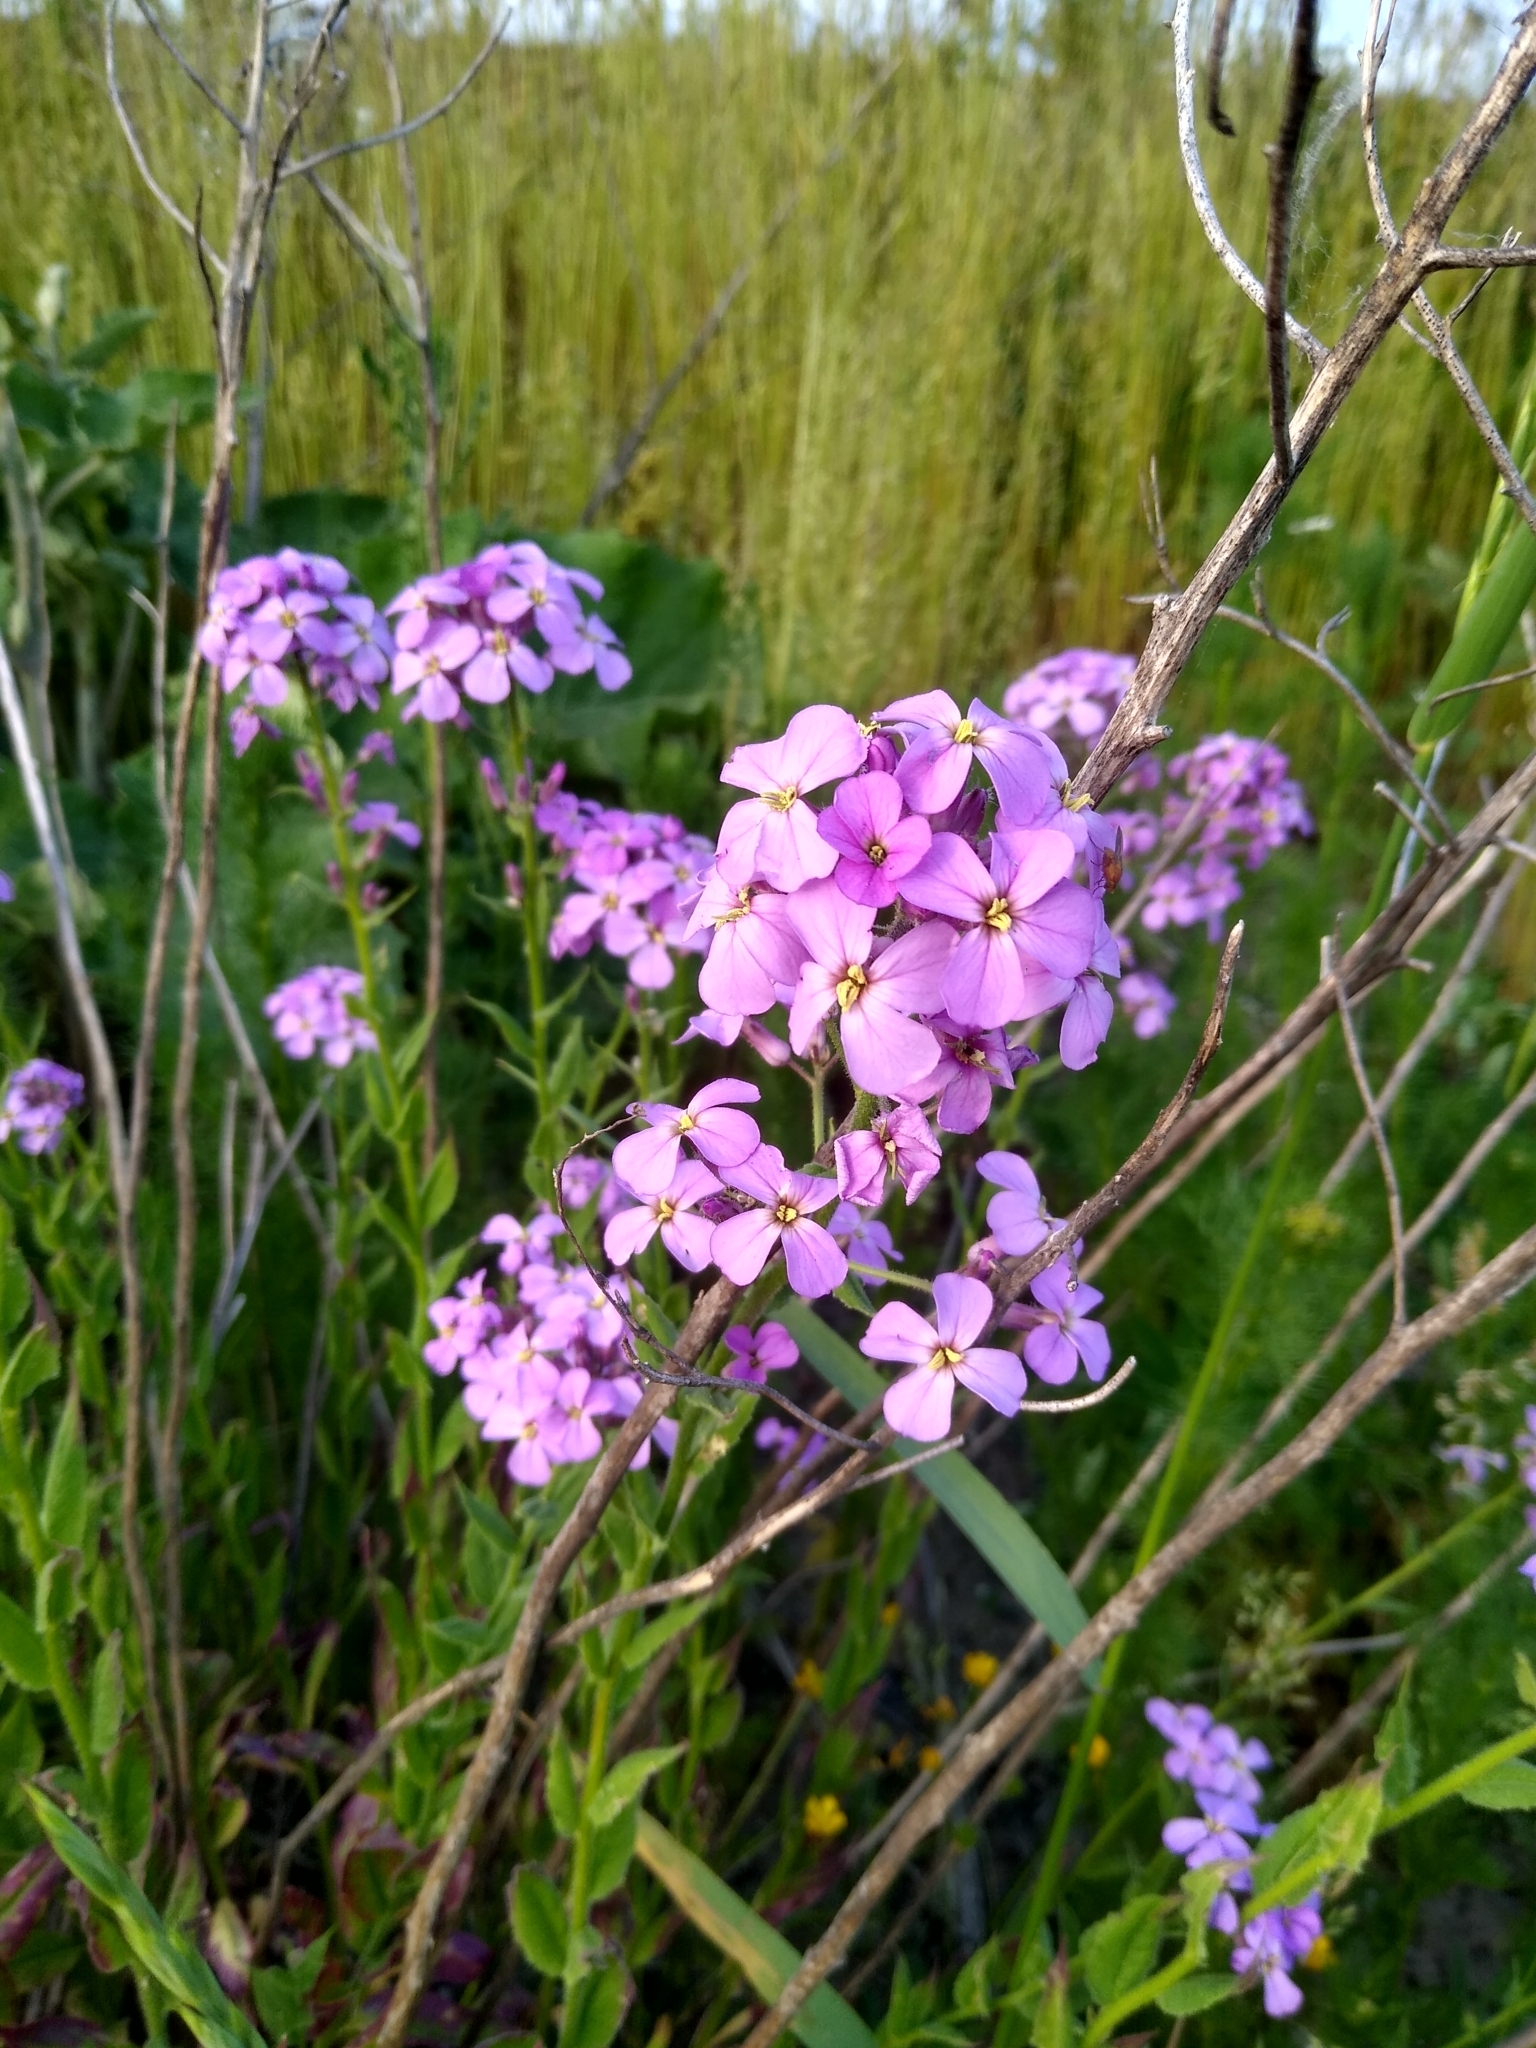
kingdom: Plantae
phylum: Tracheophyta
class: Magnoliopsida
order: Brassicales
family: Brassicaceae
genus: Hesperis
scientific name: Hesperis matronalis
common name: Dame's-violet
